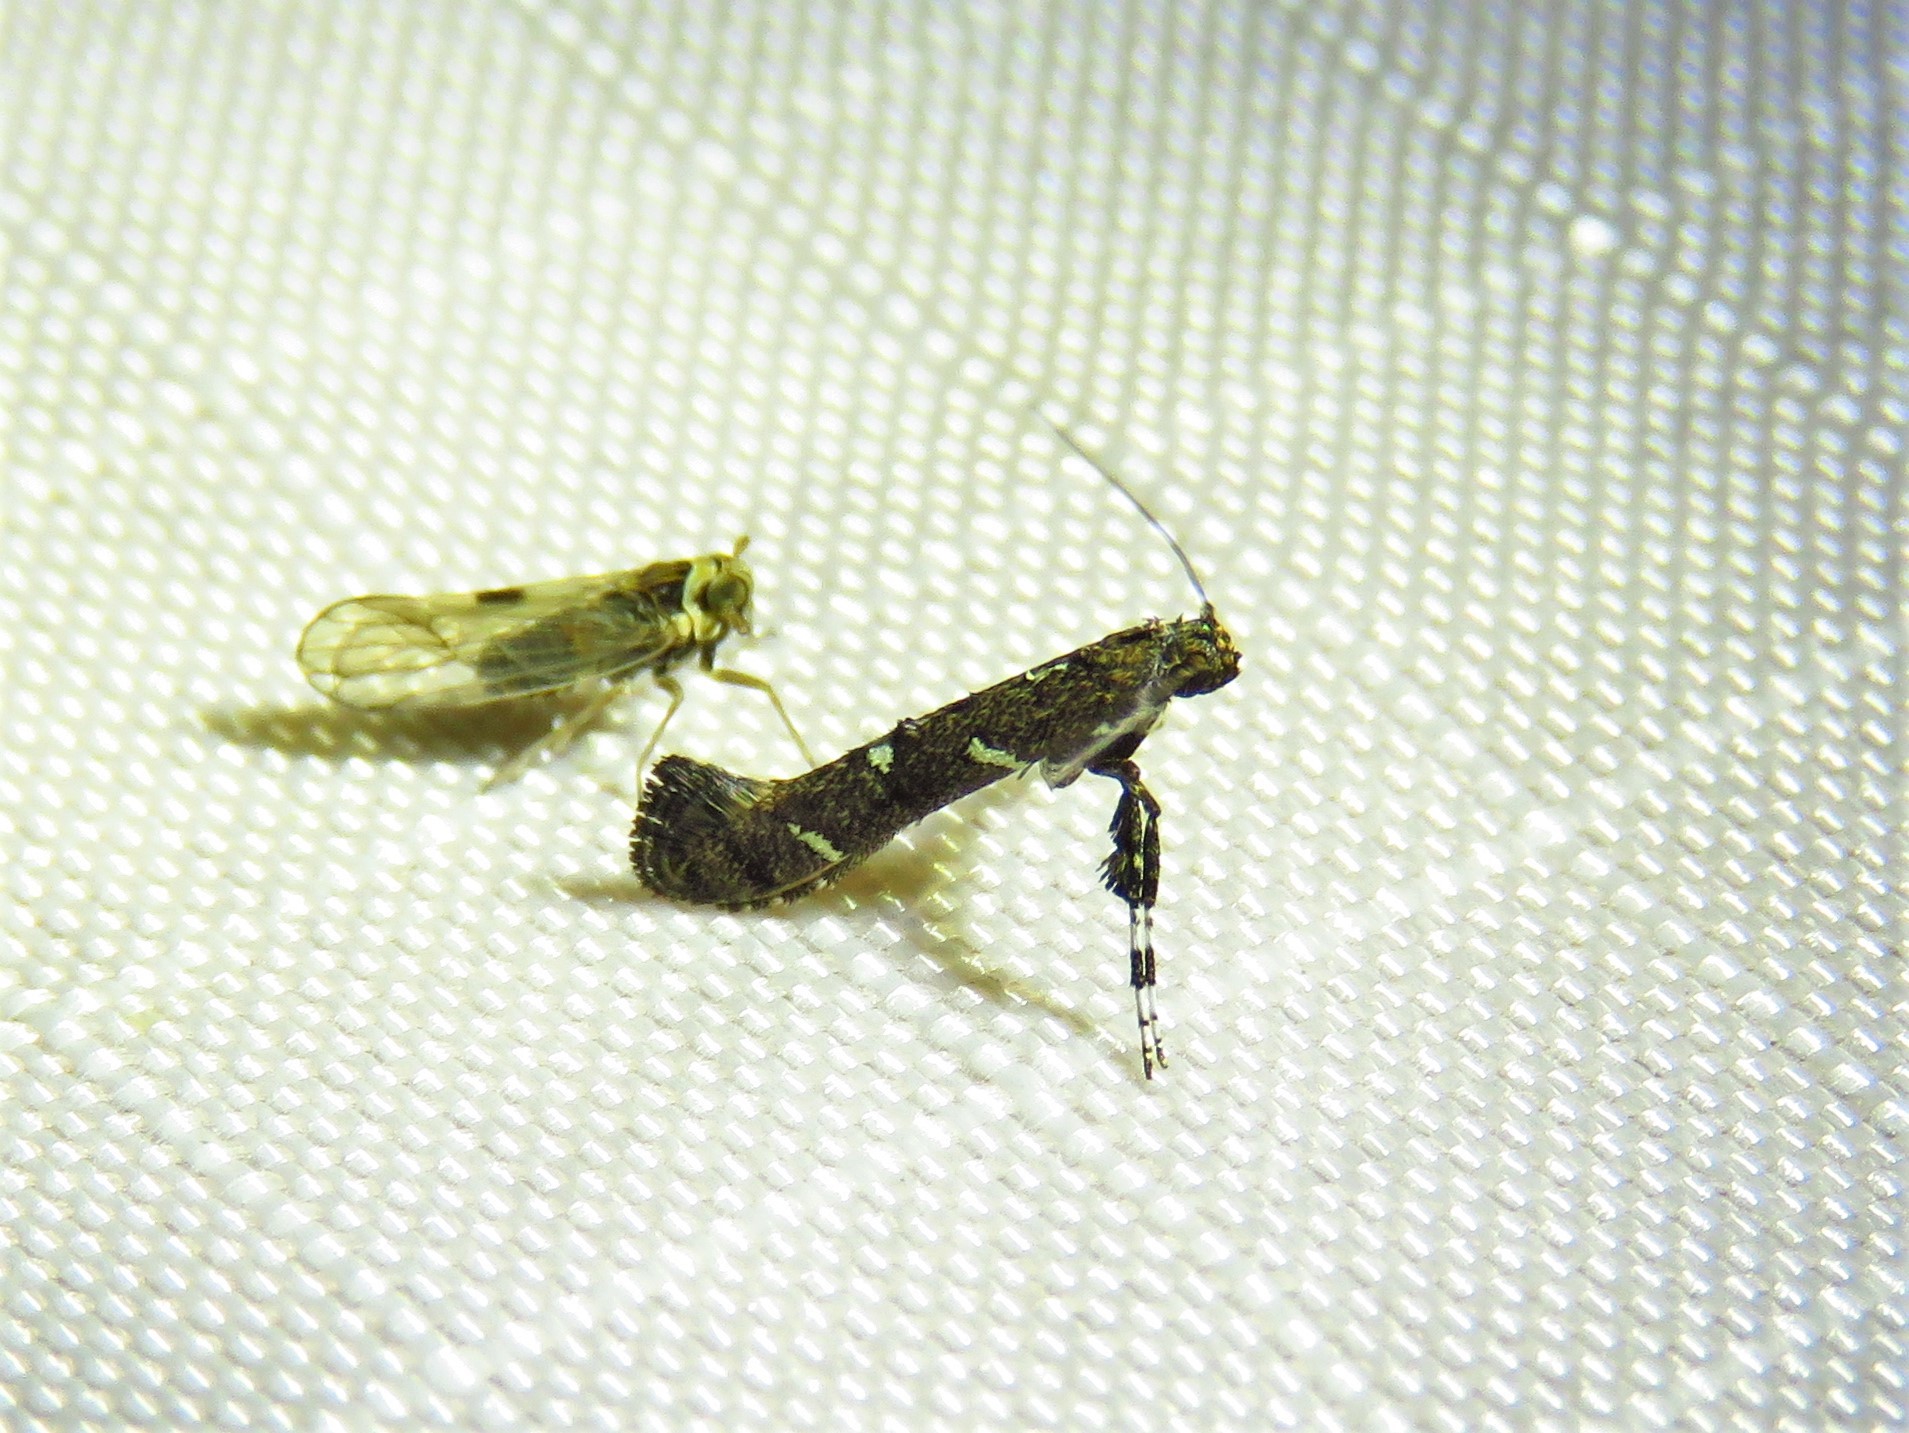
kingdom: Animalia
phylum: Arthropoda
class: Insecta
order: Lepidoptera
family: Gracillariidae
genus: Caloptilia
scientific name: Caloptilia triadicae
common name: Tallow leaf roller
